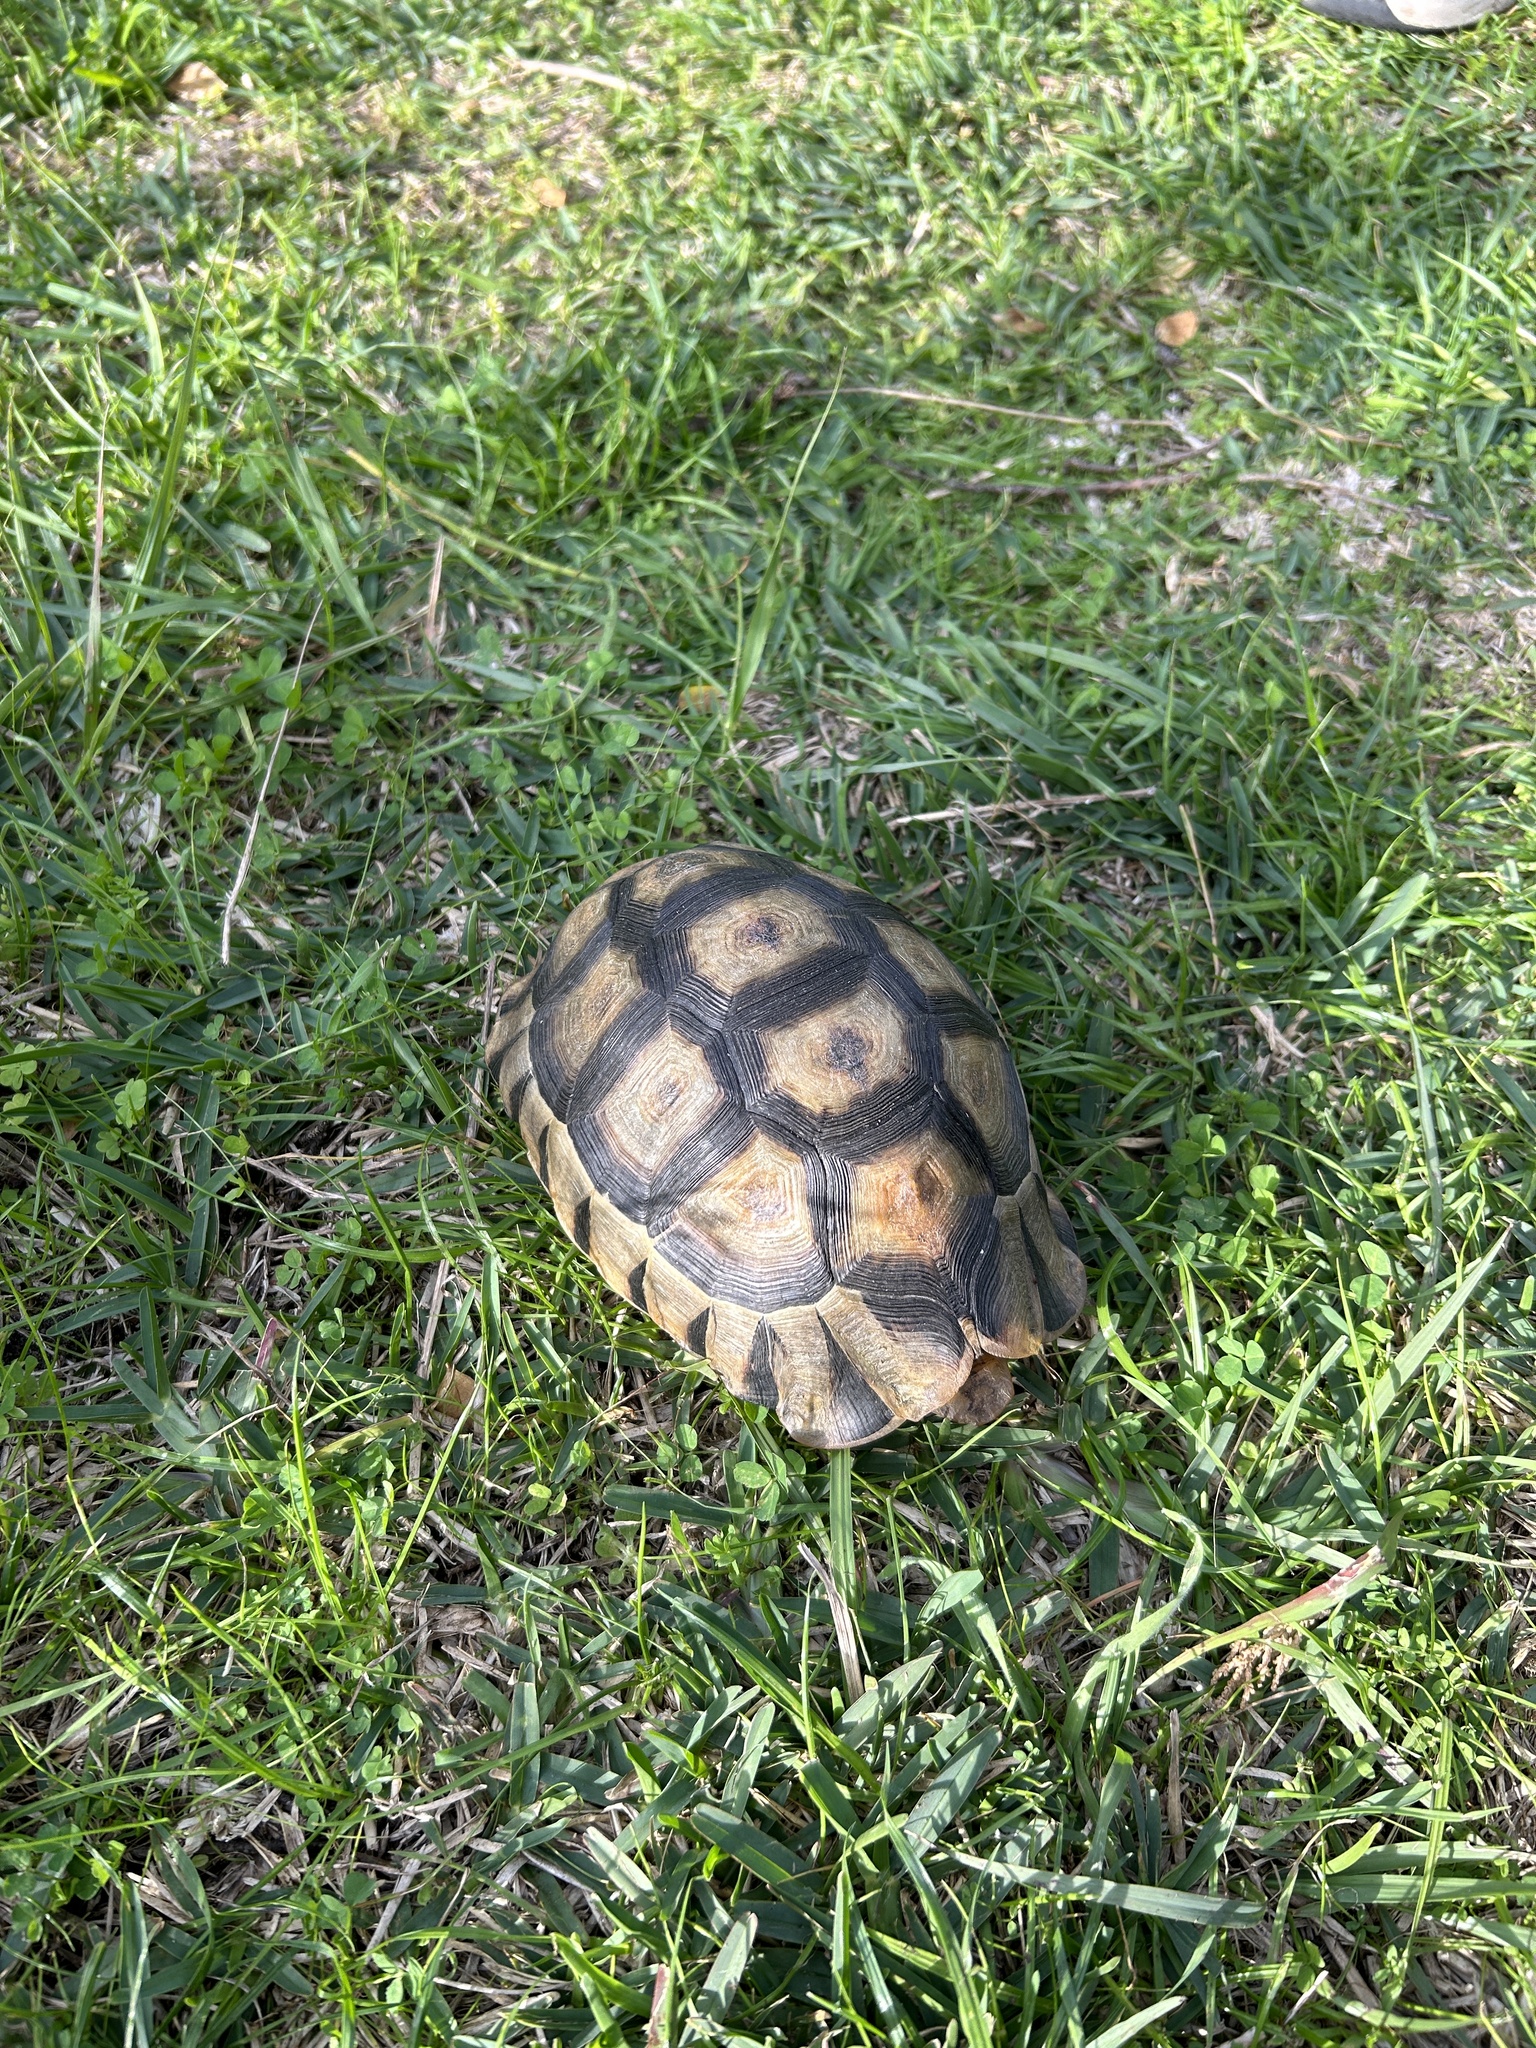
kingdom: Animalia
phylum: Chordata
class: Testudines
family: Testudinidae
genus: Chersina
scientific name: Chersina angulata
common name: South african bowsprit tortoise
